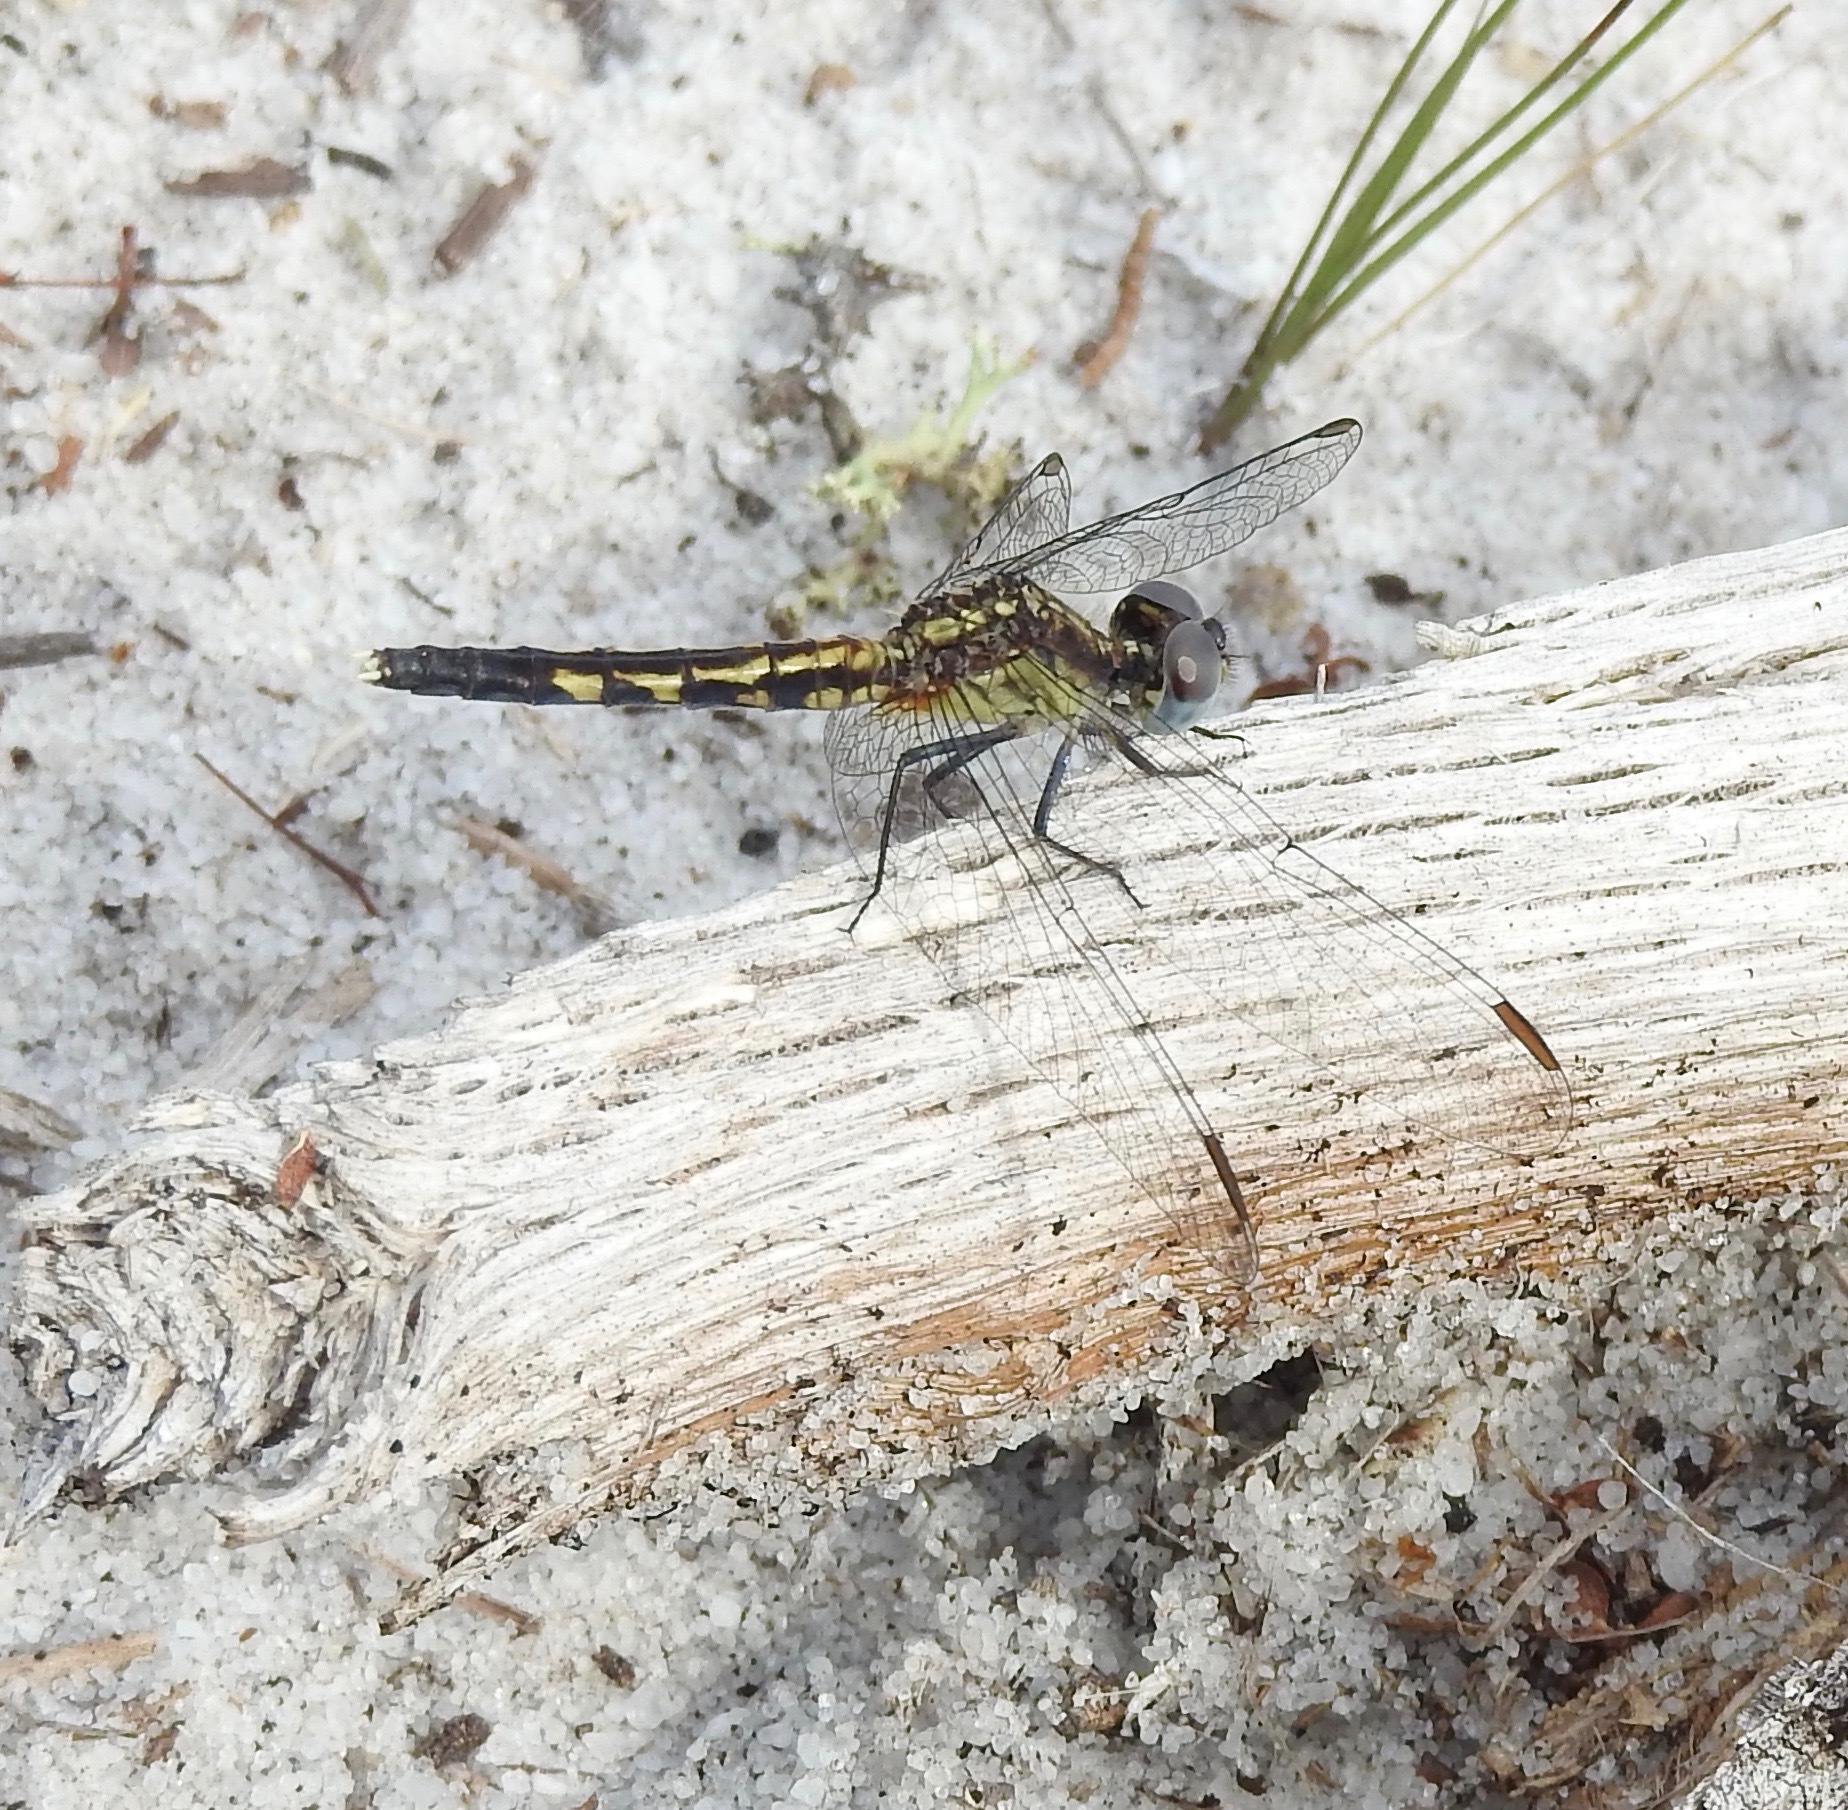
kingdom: Animalia
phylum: Arthropoda
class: Insecta
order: Odonata
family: Libellulidae
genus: Erythrodiplax
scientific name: Erythrodiplax minuscula
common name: Little blue dragonlet
